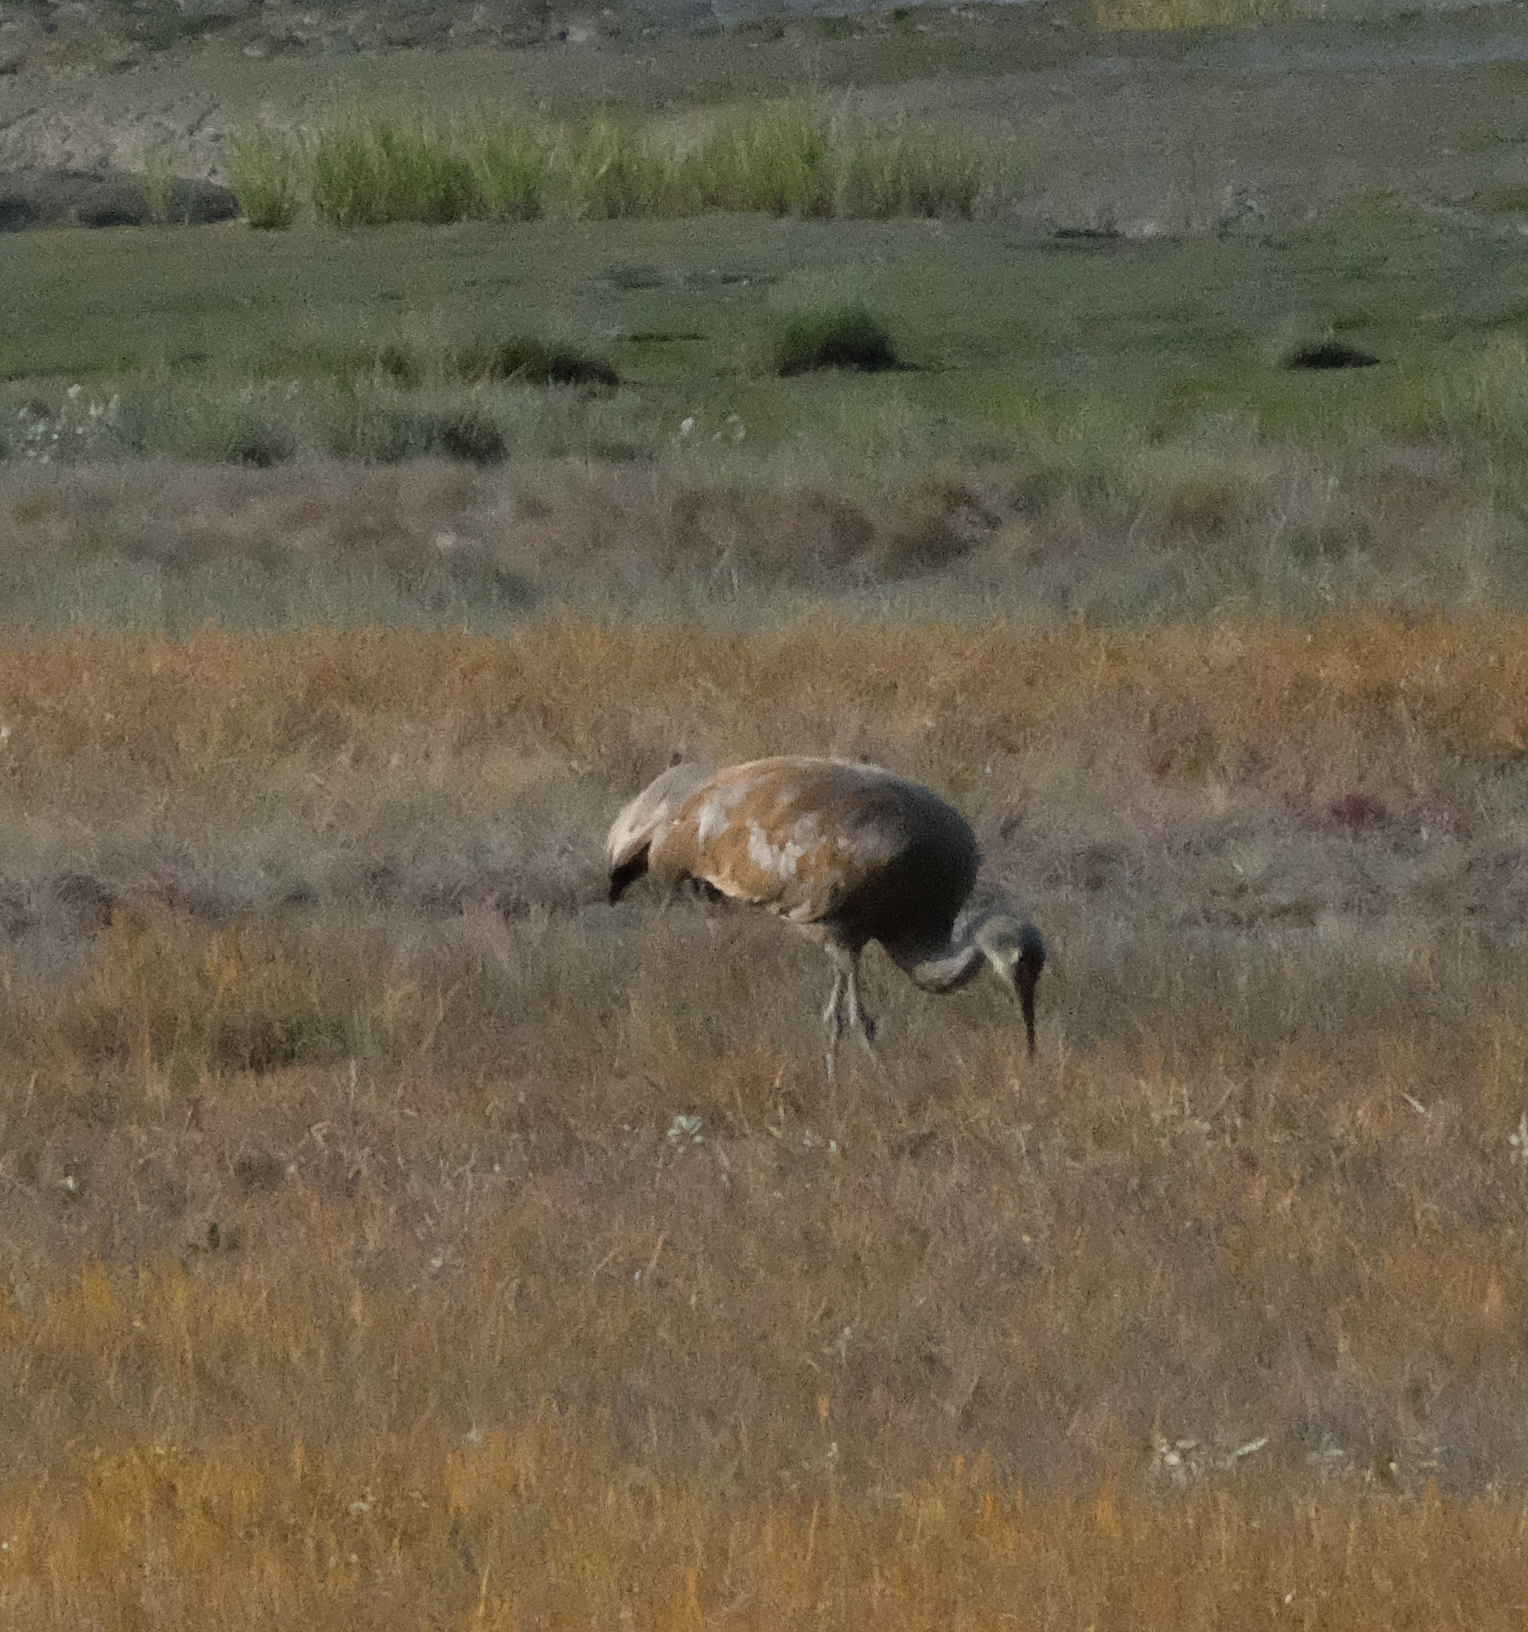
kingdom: Animalia
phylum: Chordata
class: Aves
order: Gruiformes
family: Gruidae
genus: Grus
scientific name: Grus canadensis
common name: Sandhill crane
